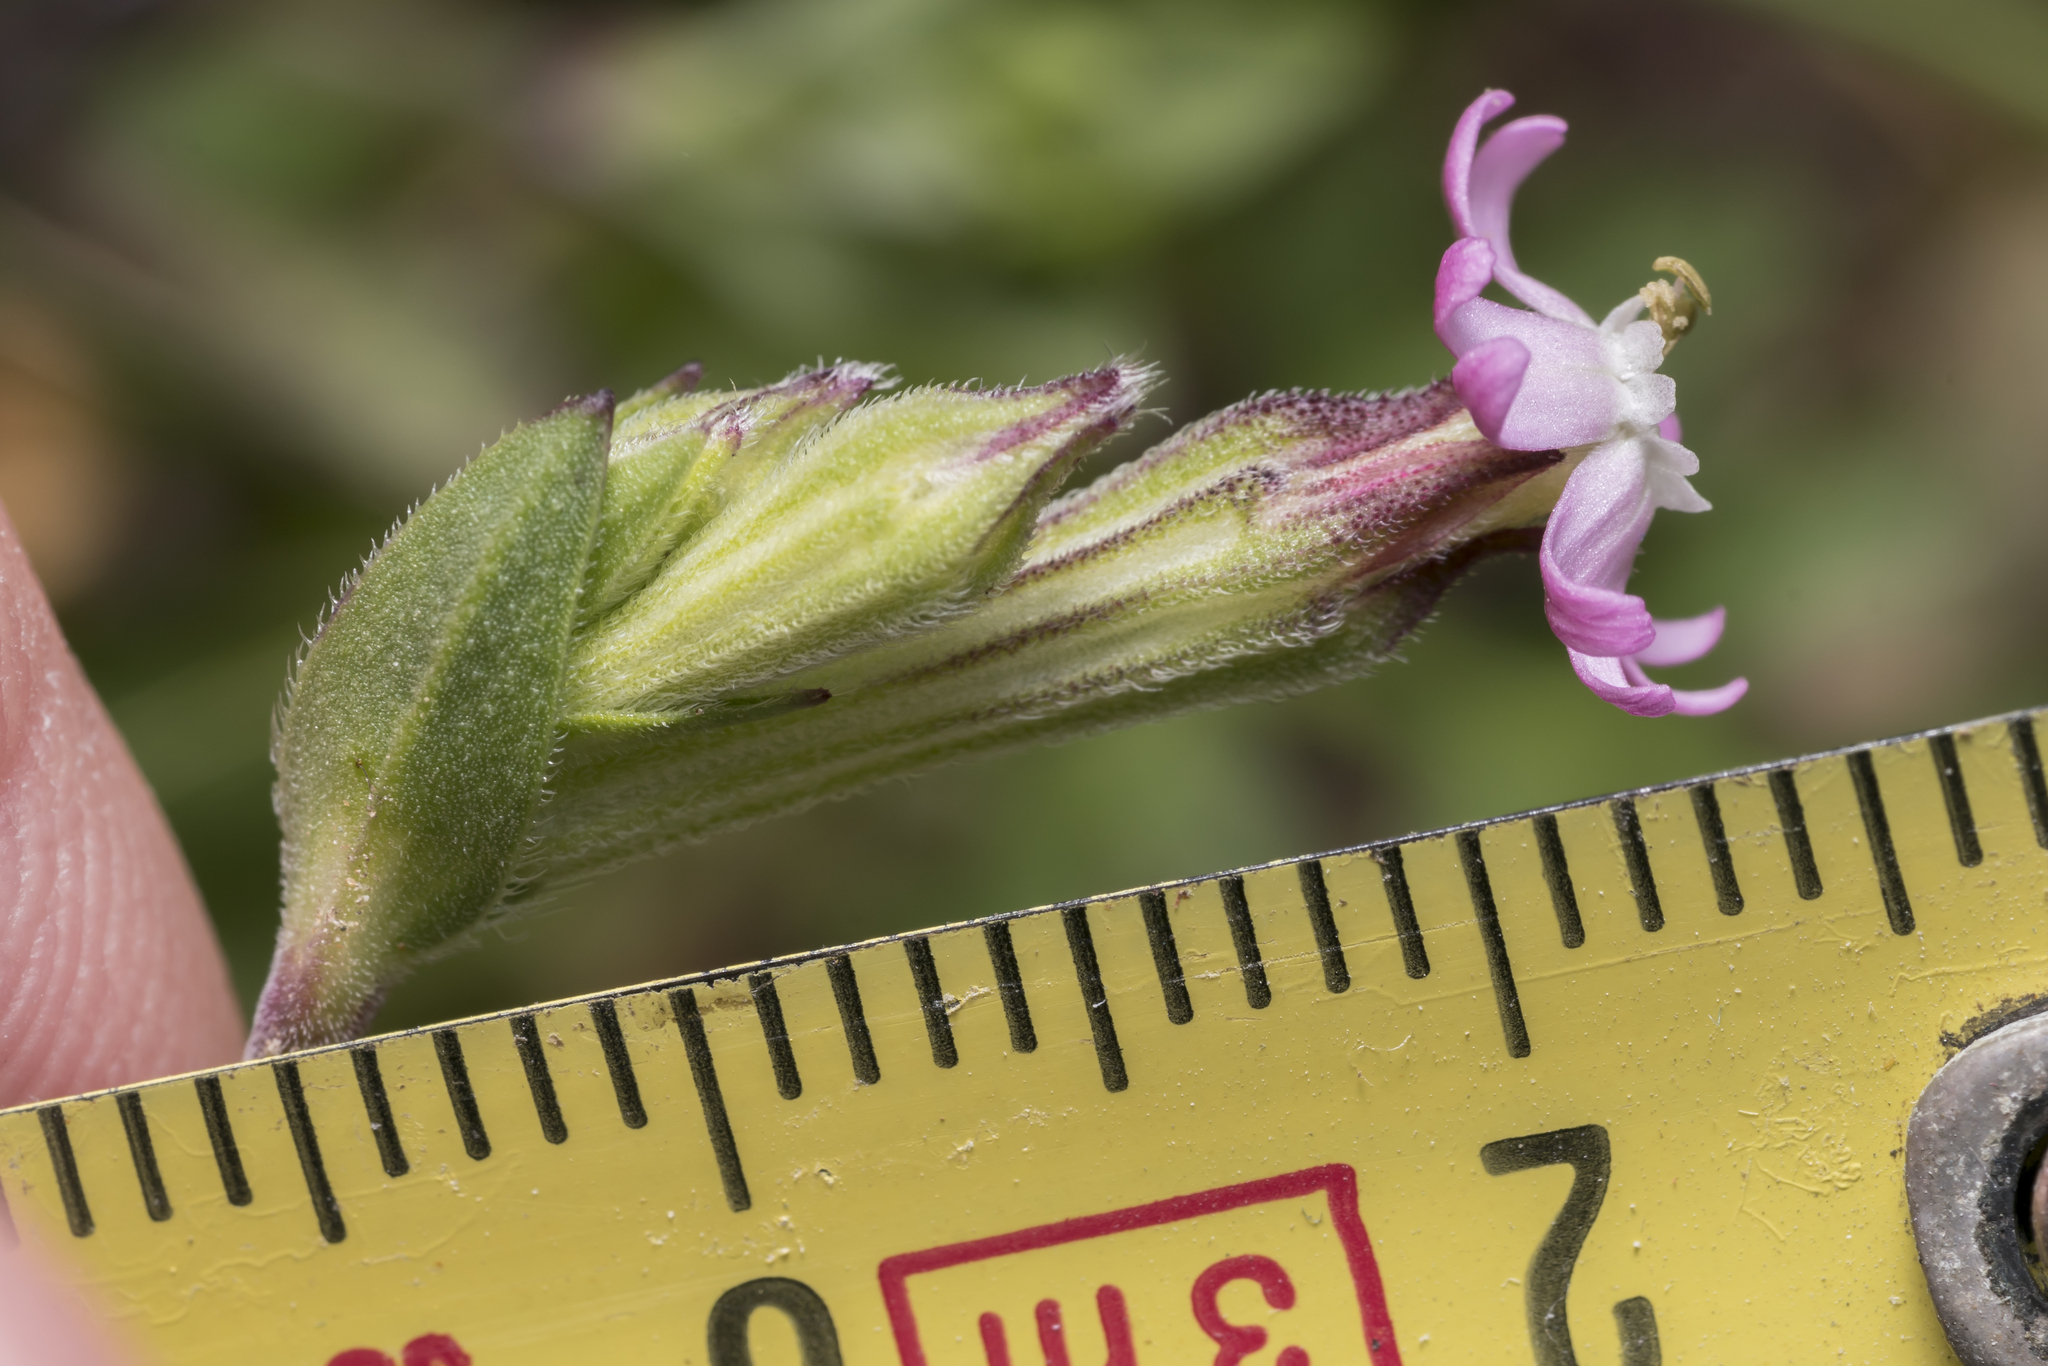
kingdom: Plantae
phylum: Tracheophyta
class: Magnoliopsida
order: Caryophyllales
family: Caryophyllaceae
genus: Silene
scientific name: Silene colorata
